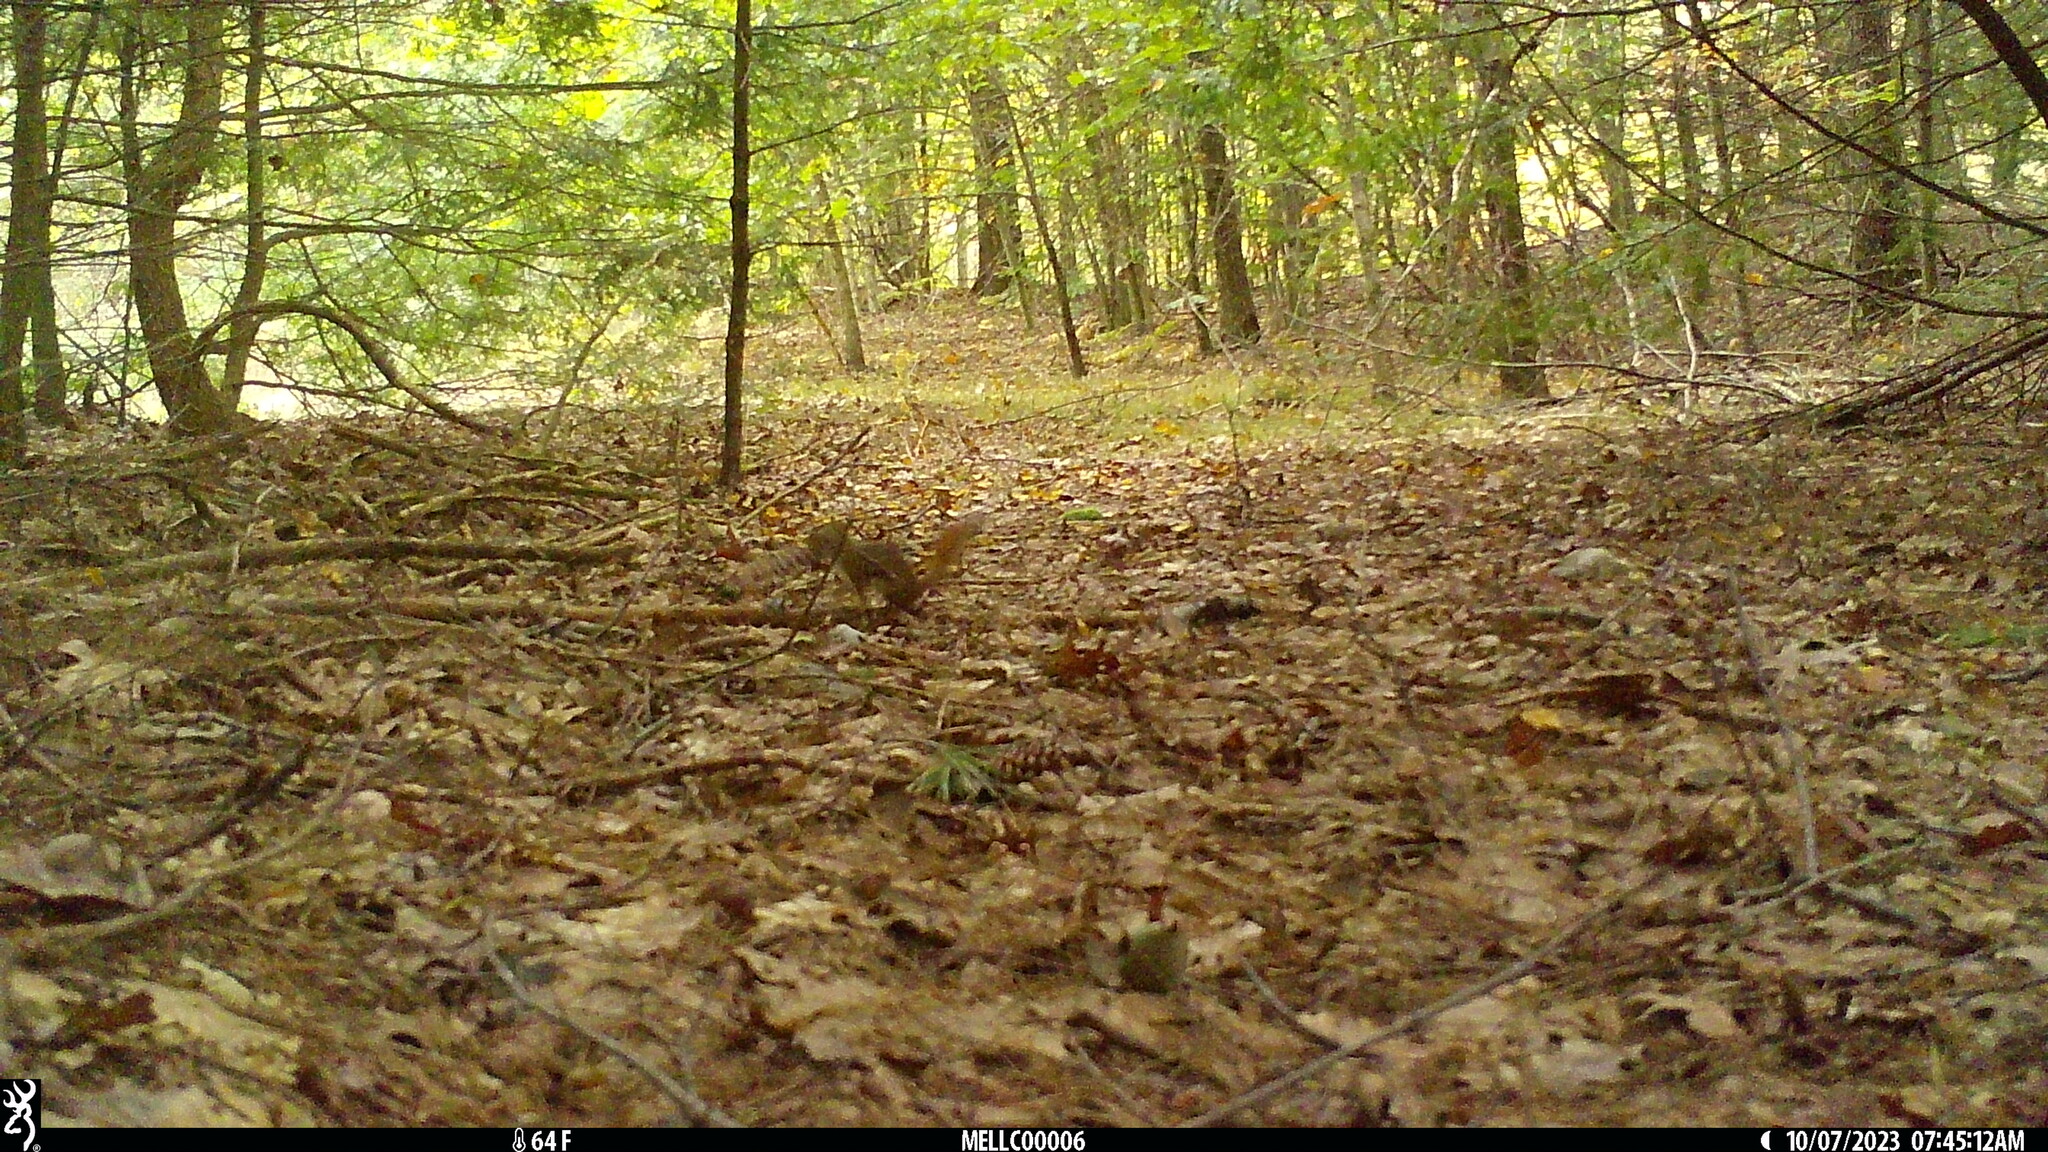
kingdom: Animalia
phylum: Chordata
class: Mammalia
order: Rodentia
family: Sciuridae
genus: Tamiasciurus
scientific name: Tamiasciurus hudsonicus
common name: Red squirrel
